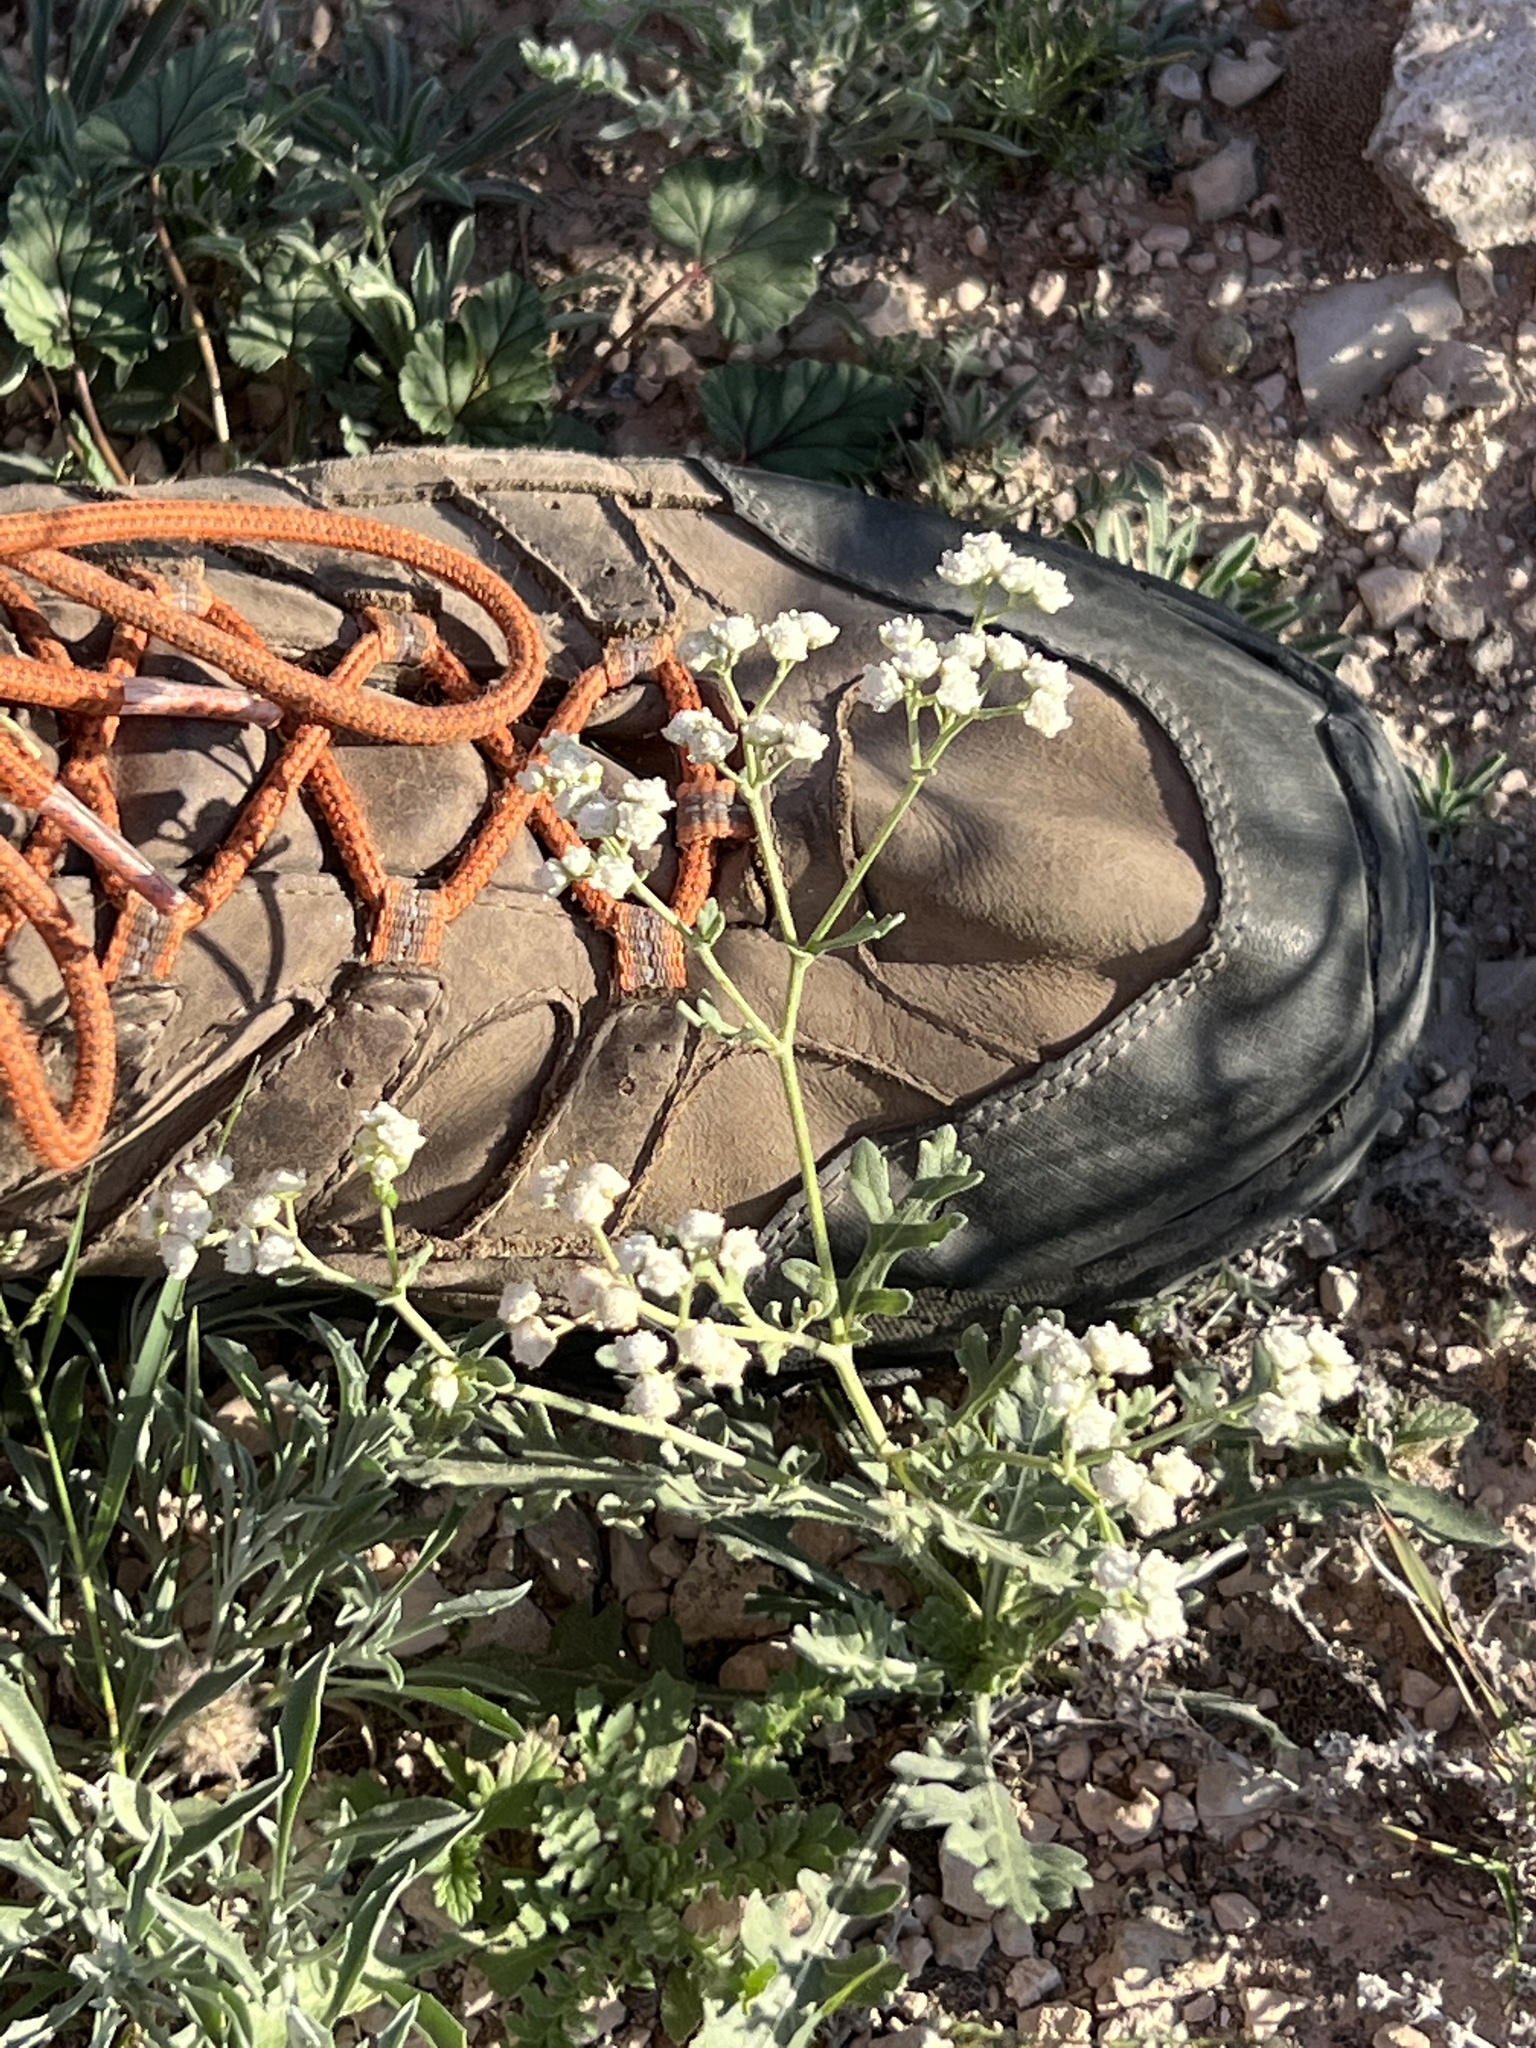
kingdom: Plantae
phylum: Tracheophyta
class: Magnoliopsida
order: Asterales
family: Asteraceae
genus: Parthenium
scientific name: Parthenium confertum
